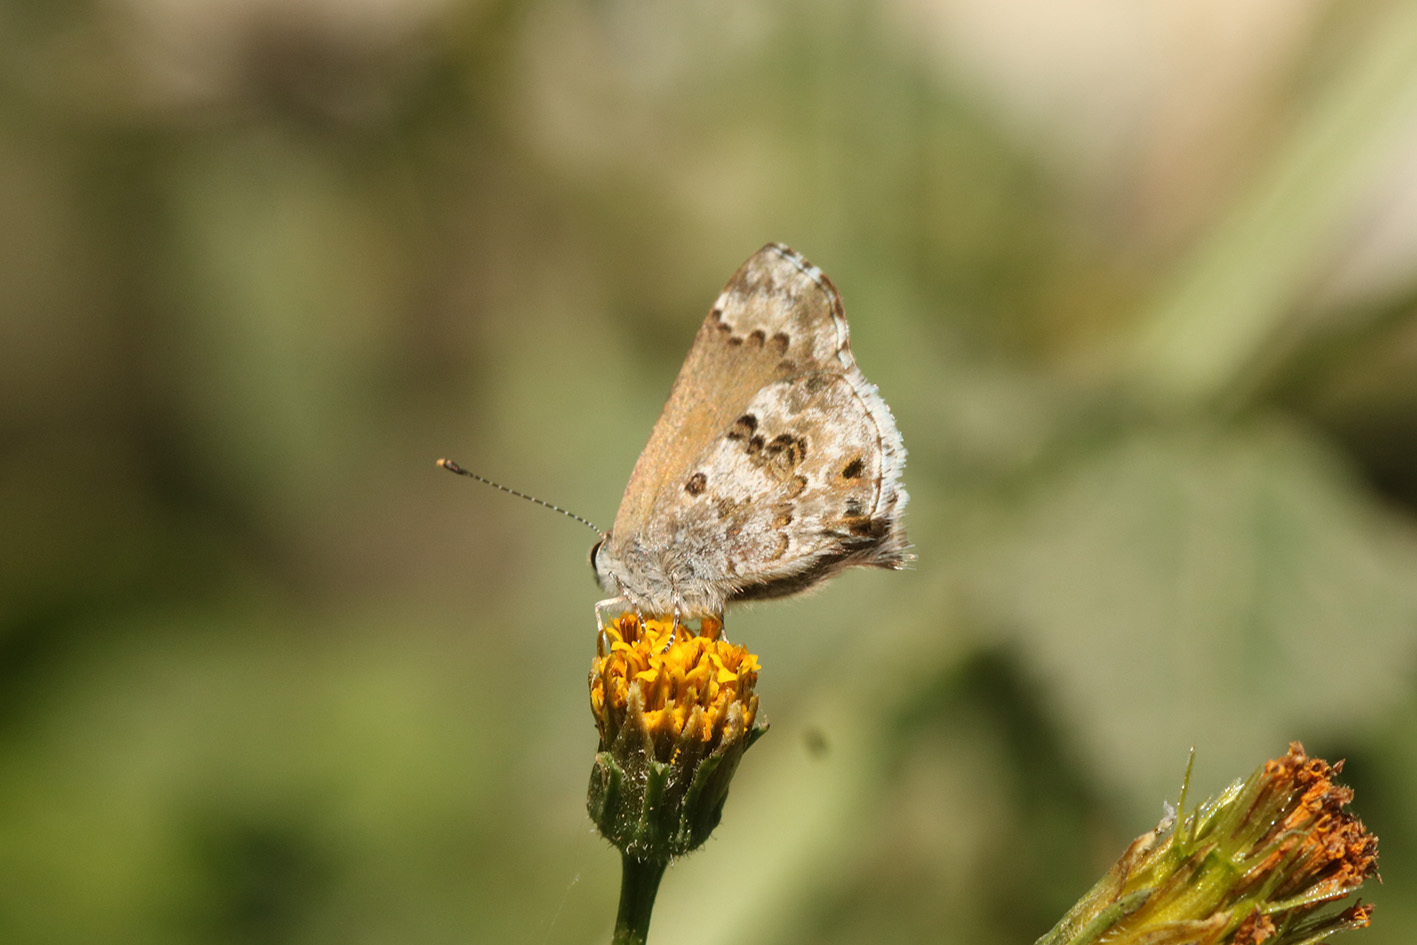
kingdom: Animalia
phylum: Arthropoda
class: Insecta
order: Lepidoptera
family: Lycaenidae
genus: Thecla
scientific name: Thecla cestri
